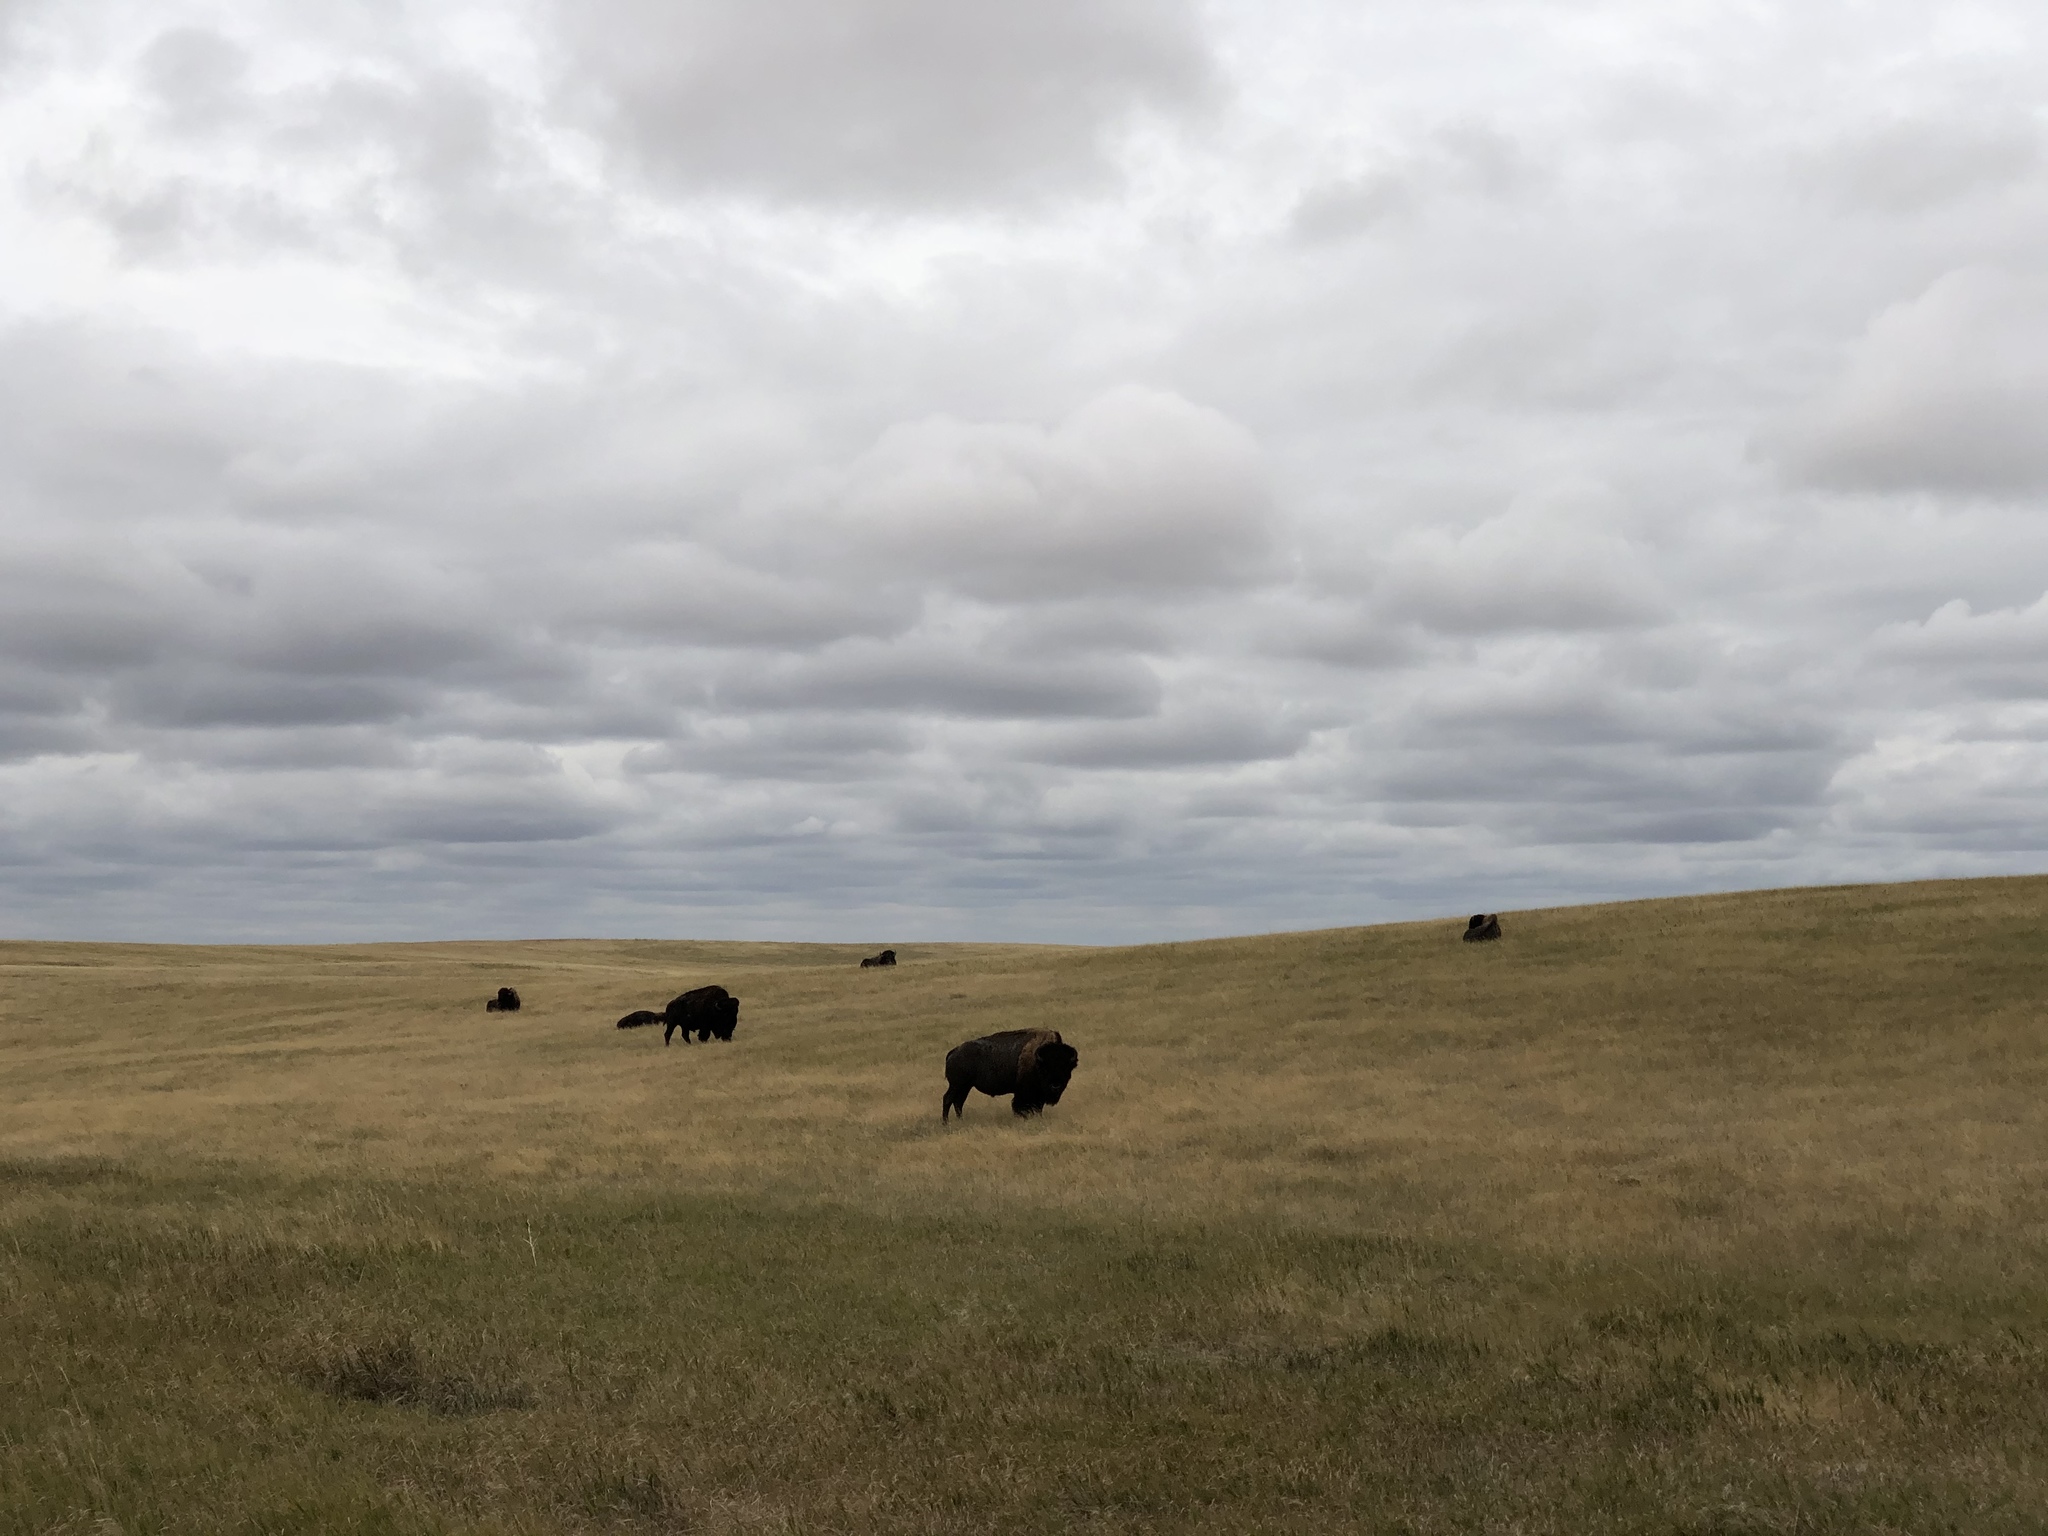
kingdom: Animalia
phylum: Chordata
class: Mammalia
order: Artiodactyla
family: Bovidae
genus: Bison
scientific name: Bison bison
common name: American bison
